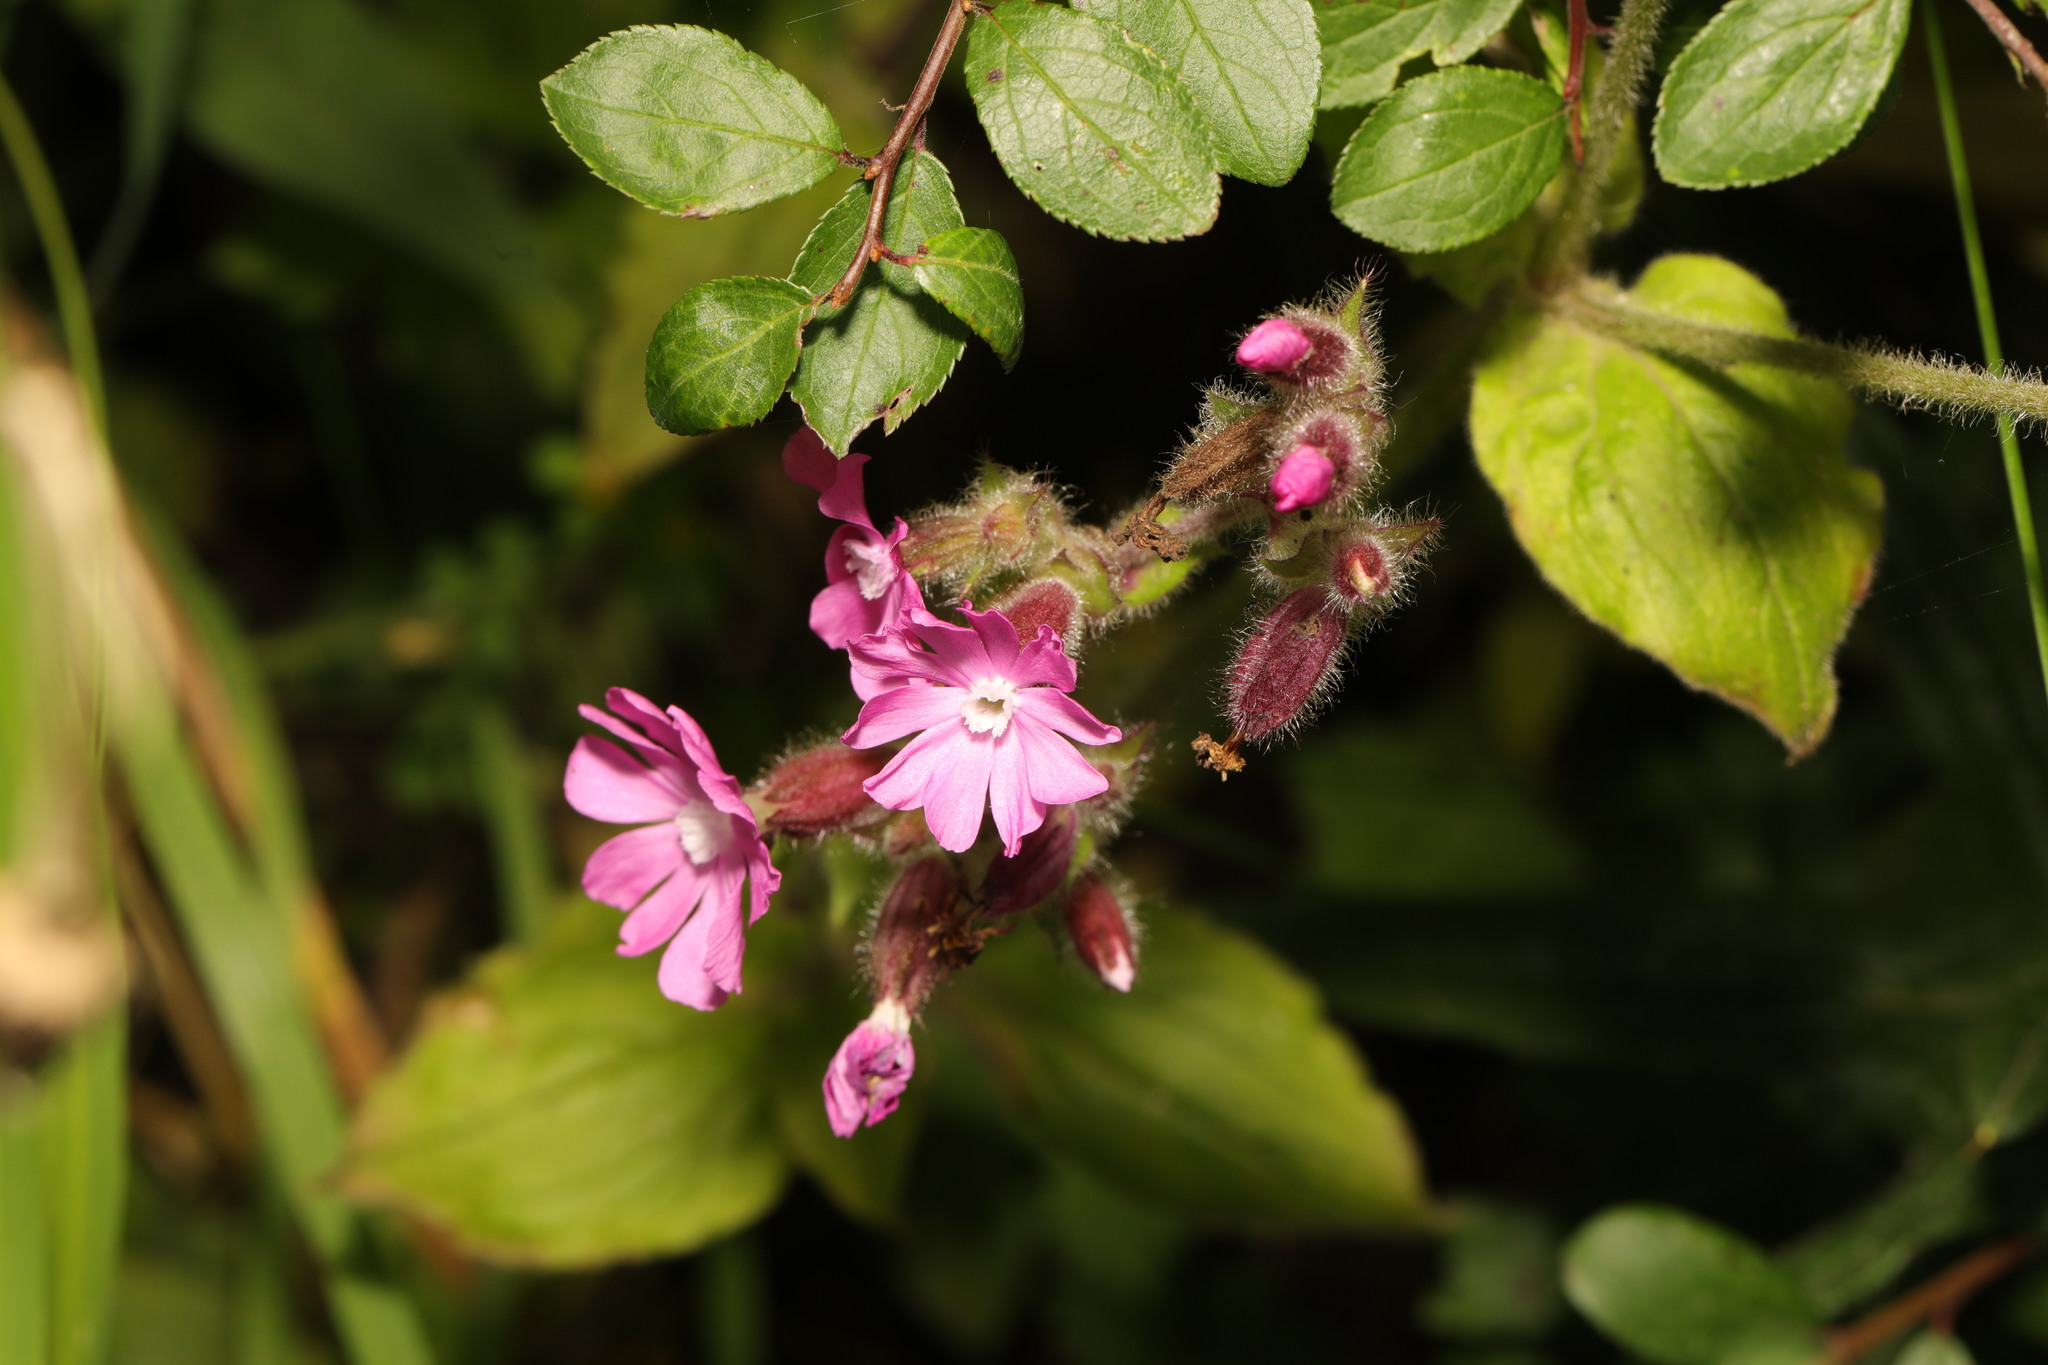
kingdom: Plantae
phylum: Tracheophyta
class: Magnoliopsida
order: Caryophyllales
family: Caryophyllaceae
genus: Silene
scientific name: Silene dioica
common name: Red campion
